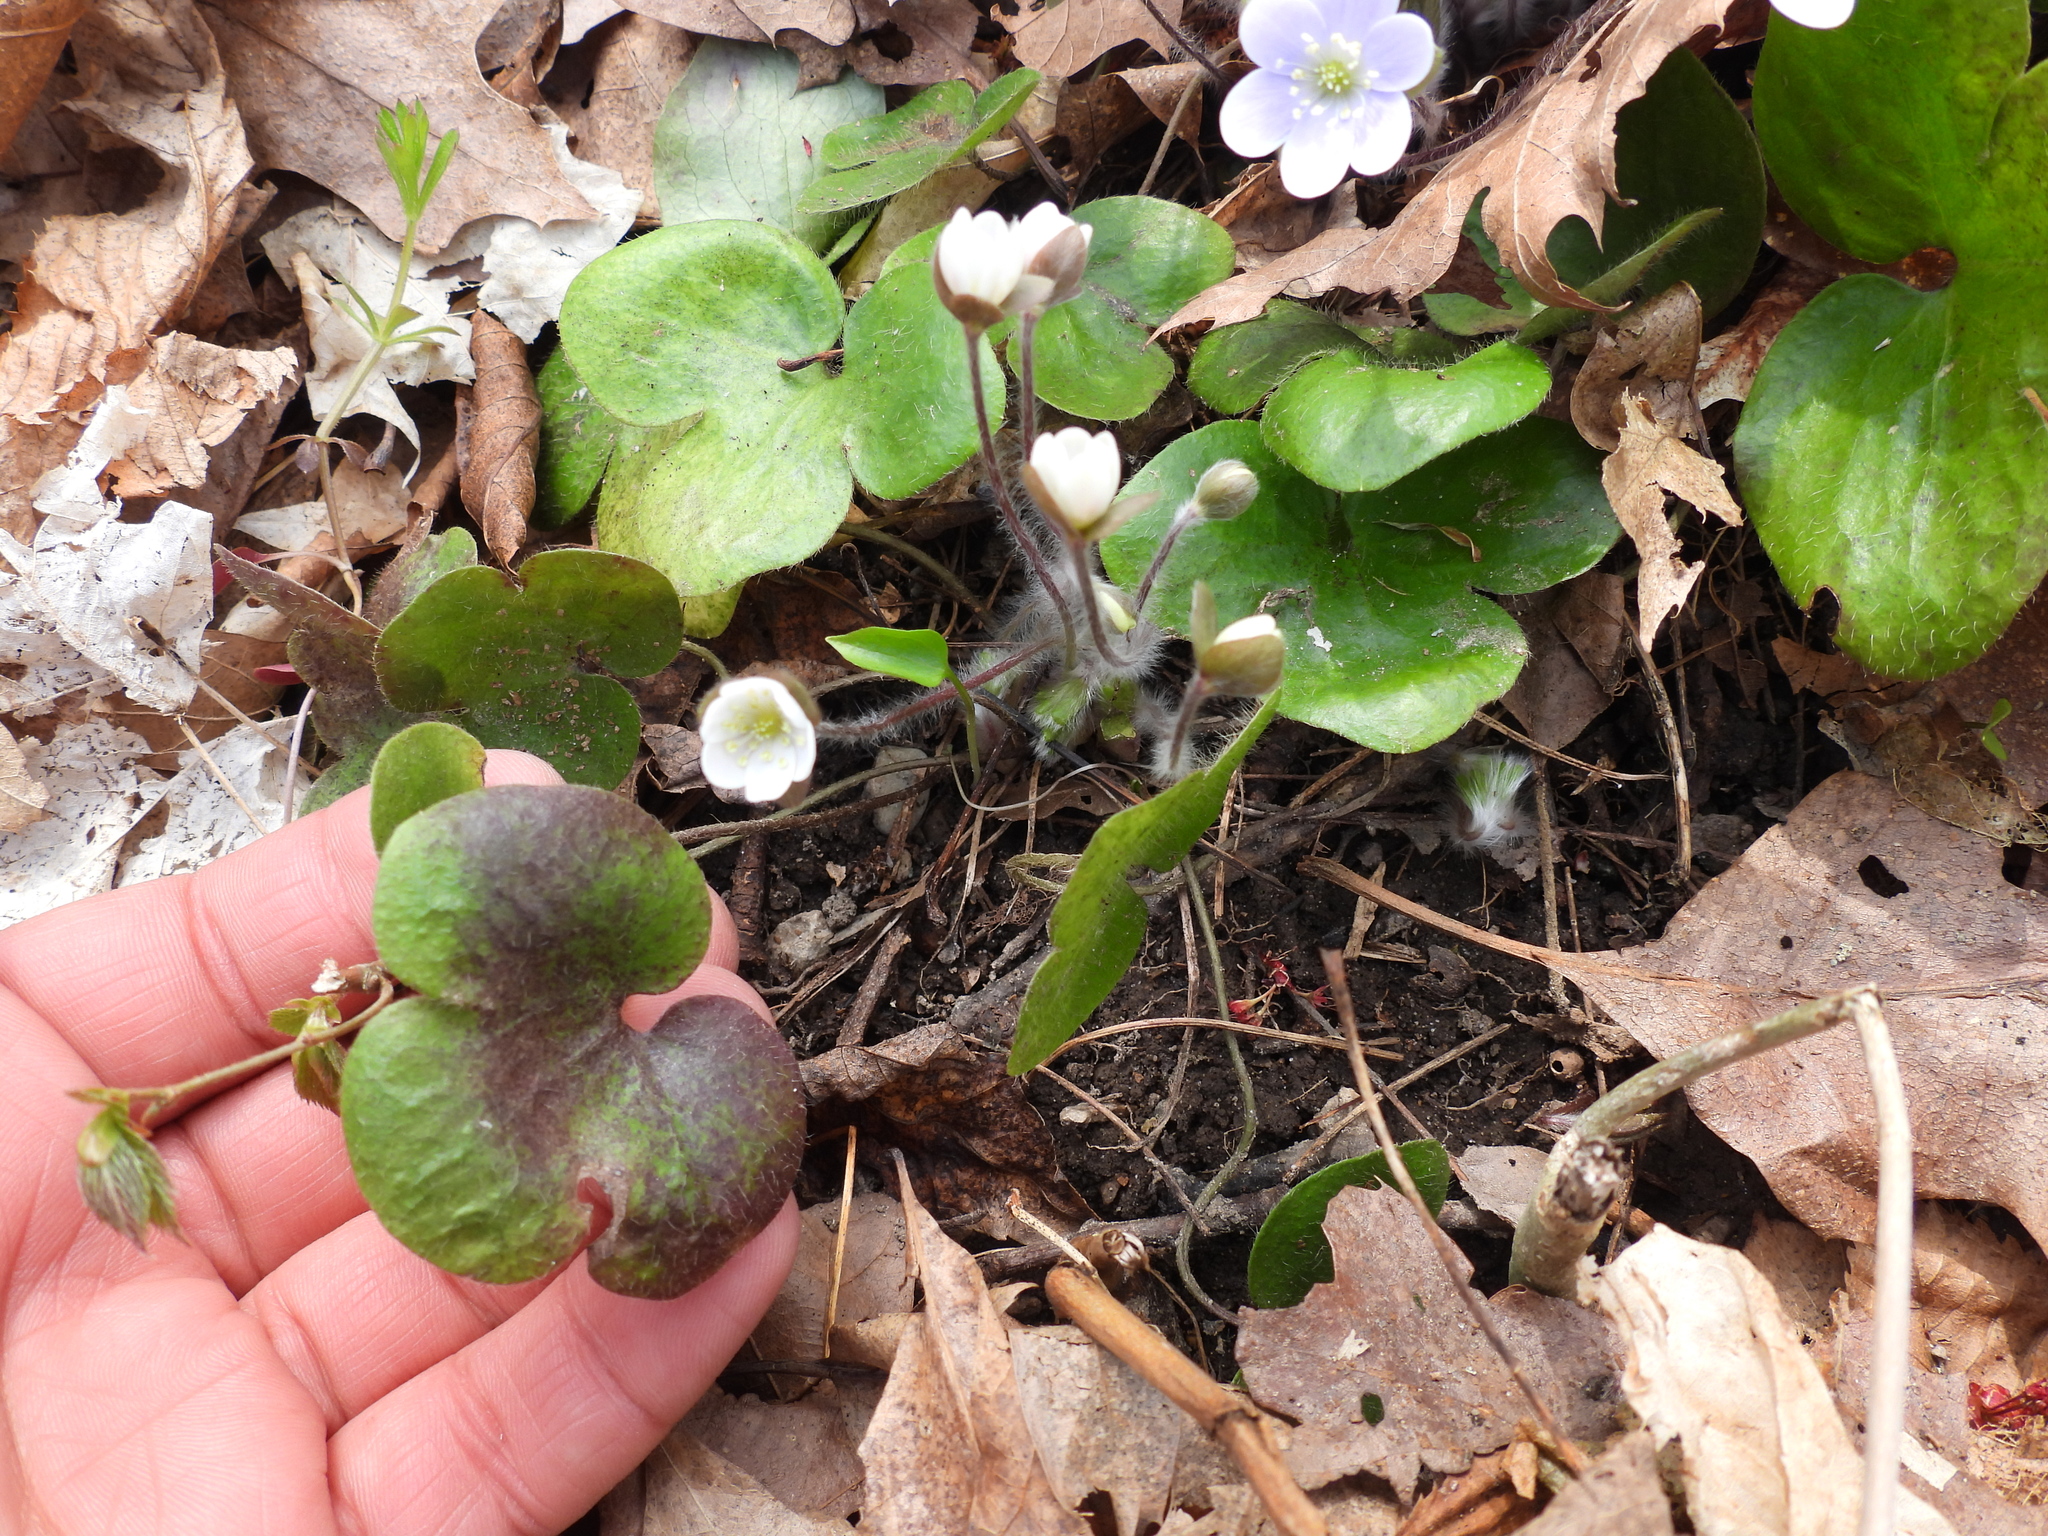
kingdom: Plantae
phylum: Tracheophyta
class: Magnoliopsida
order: Ranunculales
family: Ranunculaceae
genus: Hepatica
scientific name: Hepatica americana
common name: American hepatica
